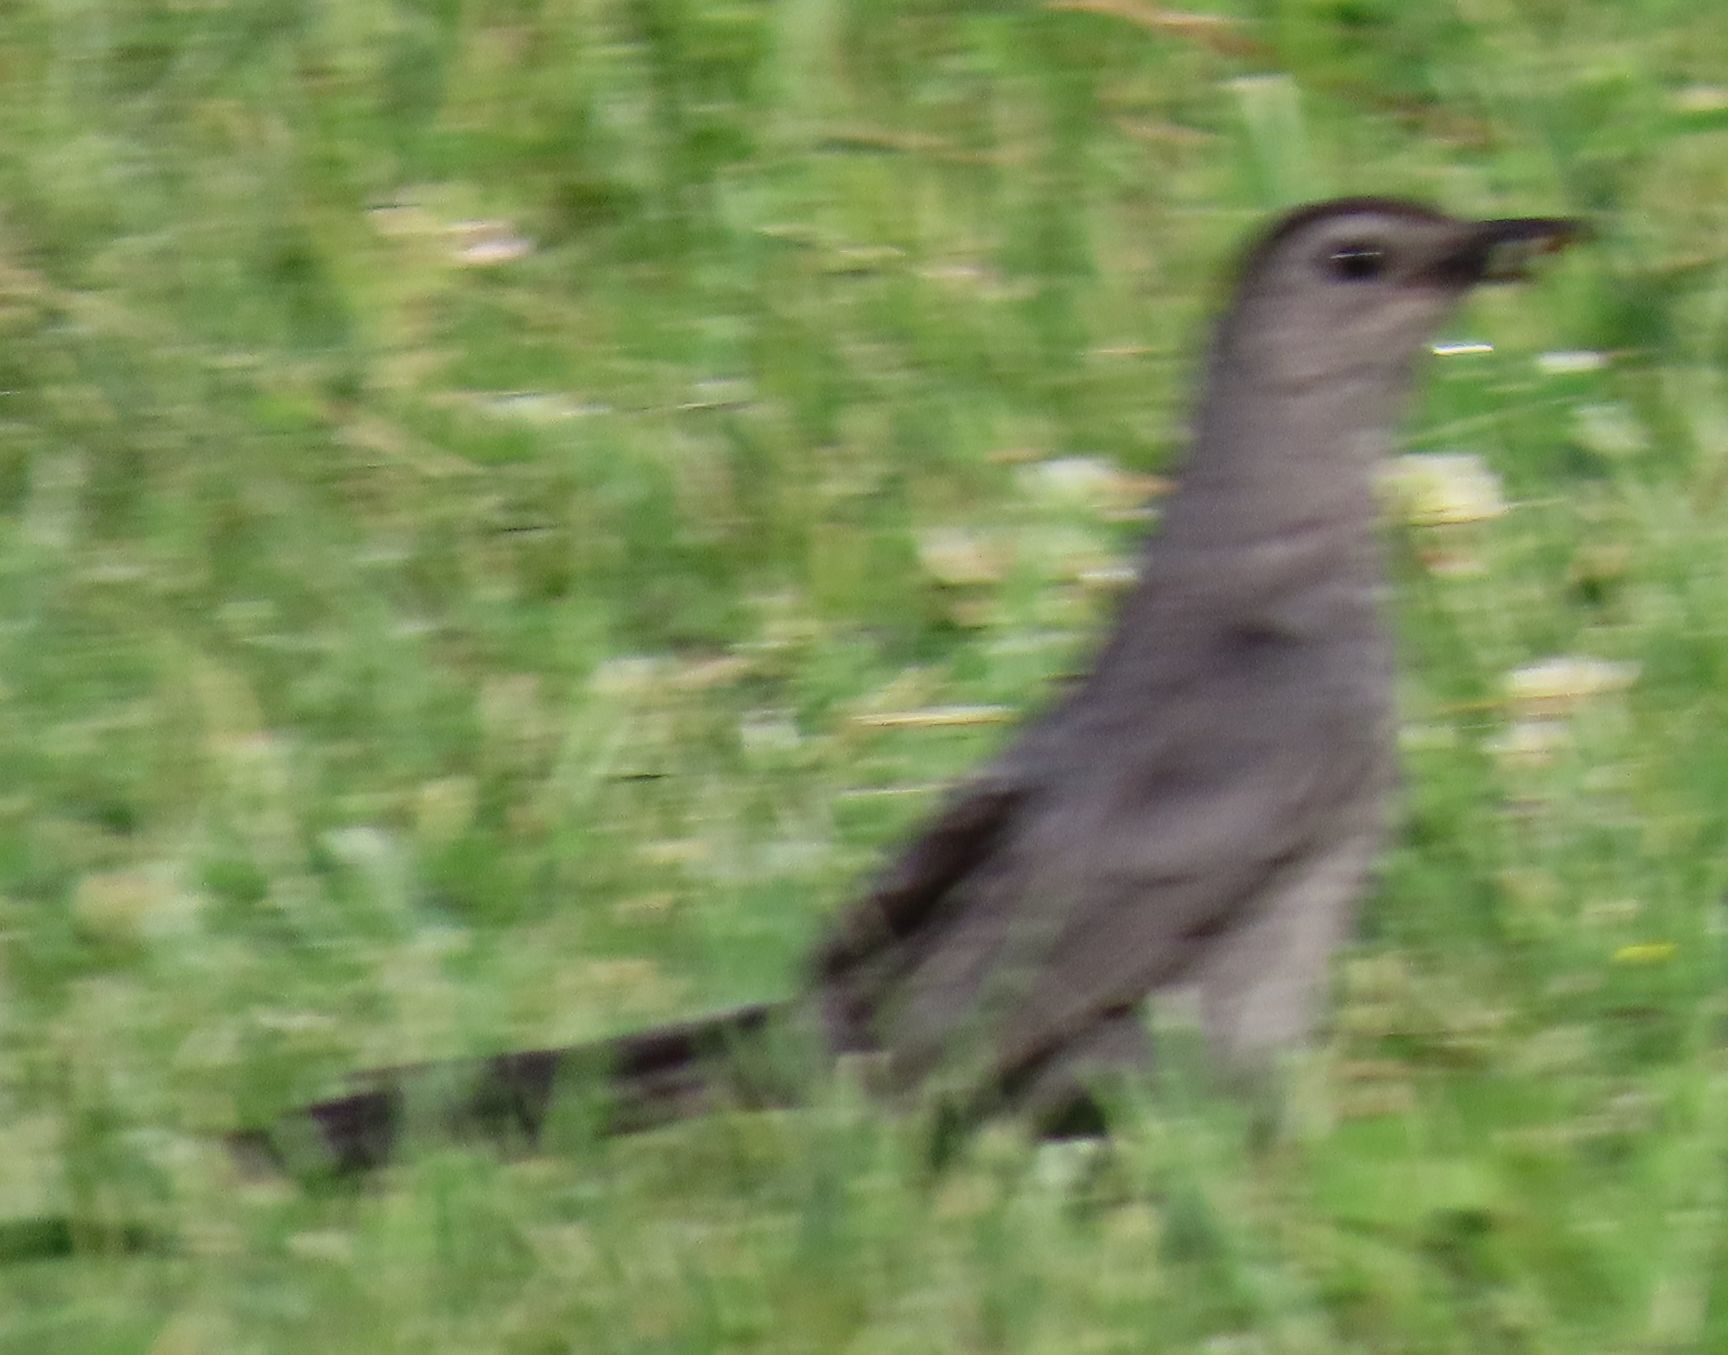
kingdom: Animalia
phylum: Chordata
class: Aves
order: Passeriformes
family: Mimidae
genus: Dumetella
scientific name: Dumetella carolinensis
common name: Gray catbird
